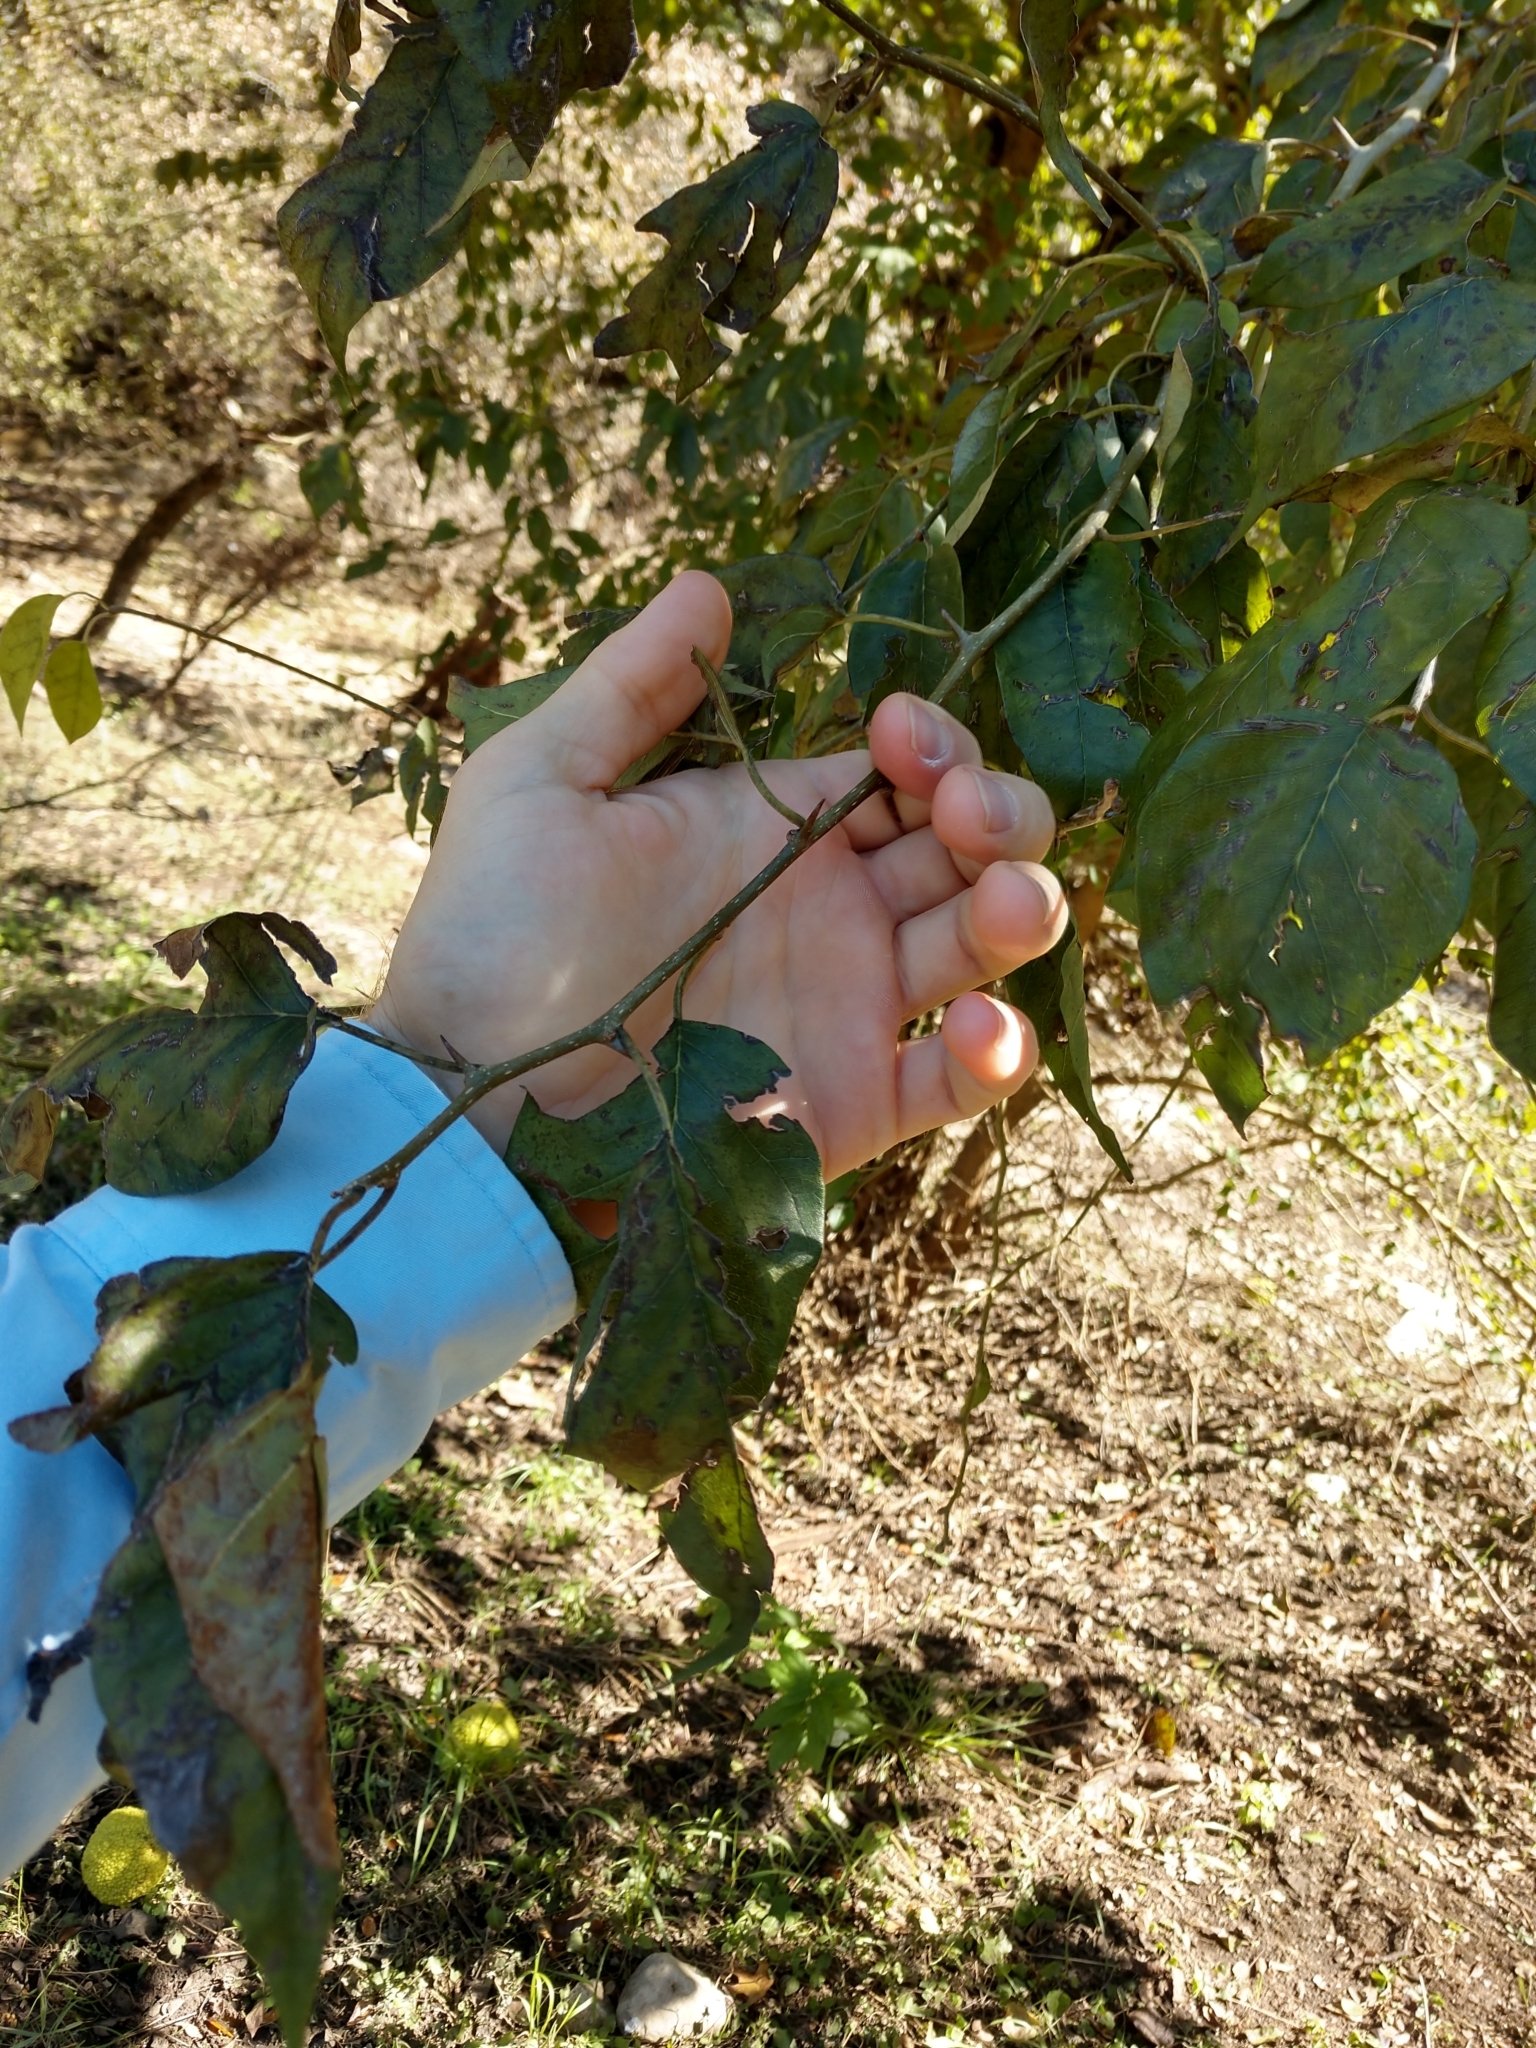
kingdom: Plantae
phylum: Tracheophyta
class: Magnoliopsida
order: Rosales
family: Moraceae
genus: Maclura
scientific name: Maclura pomifera
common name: Osage-orange
